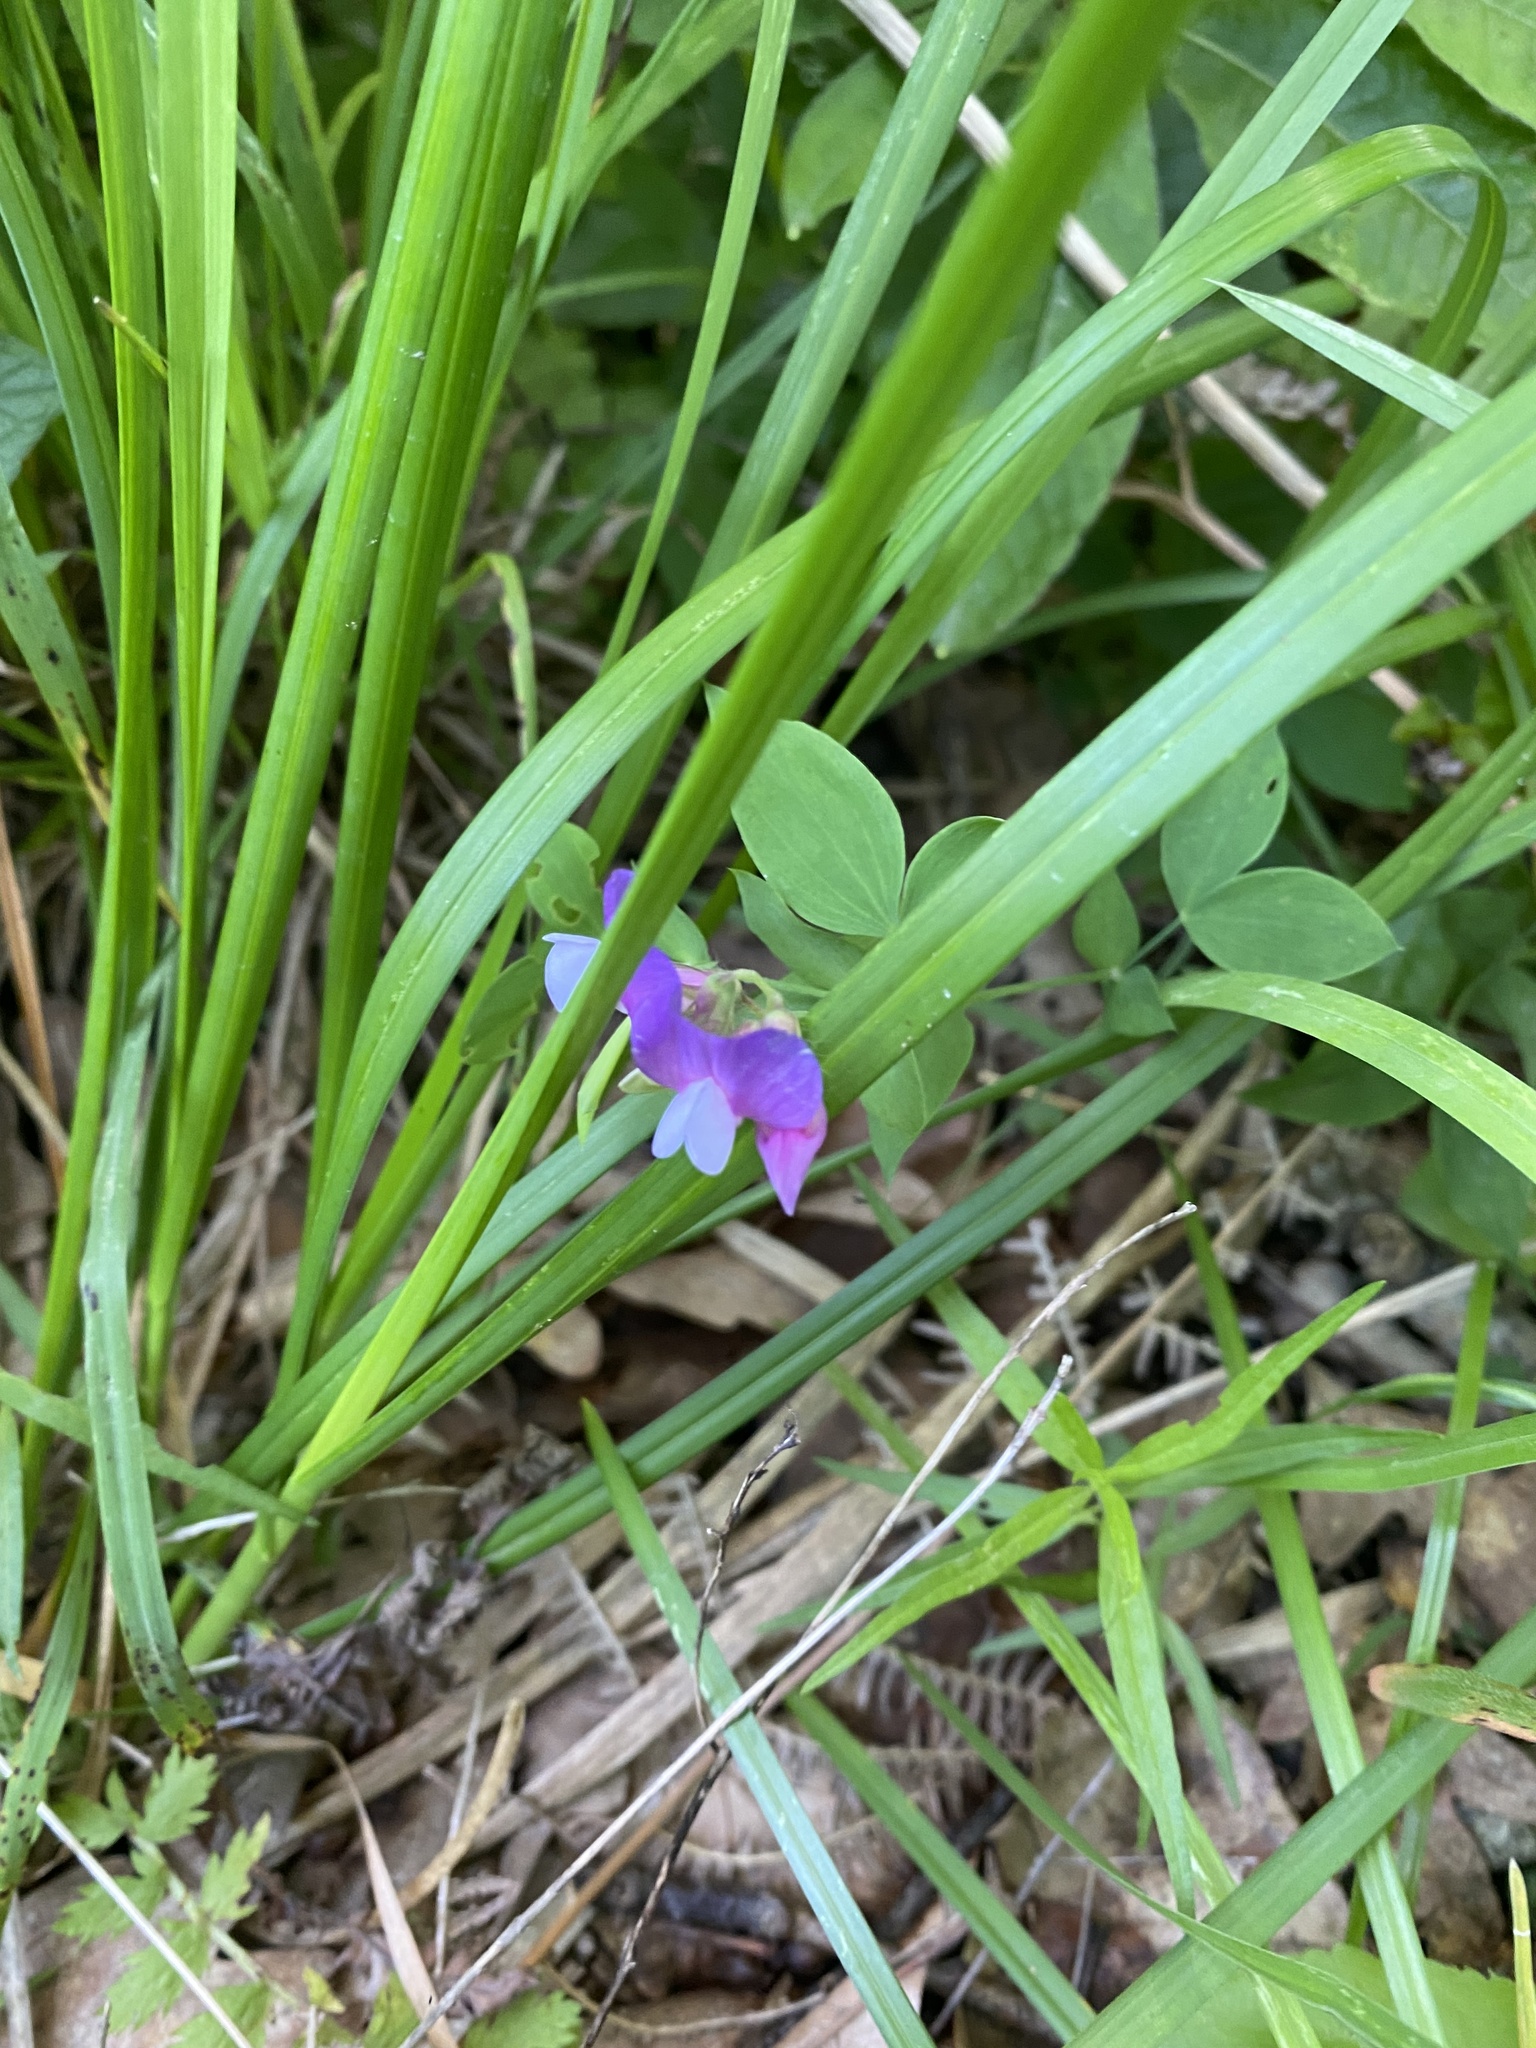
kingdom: Plantae
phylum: Tracheophyta
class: Magnoliopsida
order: Fabales
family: Fabaceae
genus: Lathyrus
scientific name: Lathyrus laxiflorus
